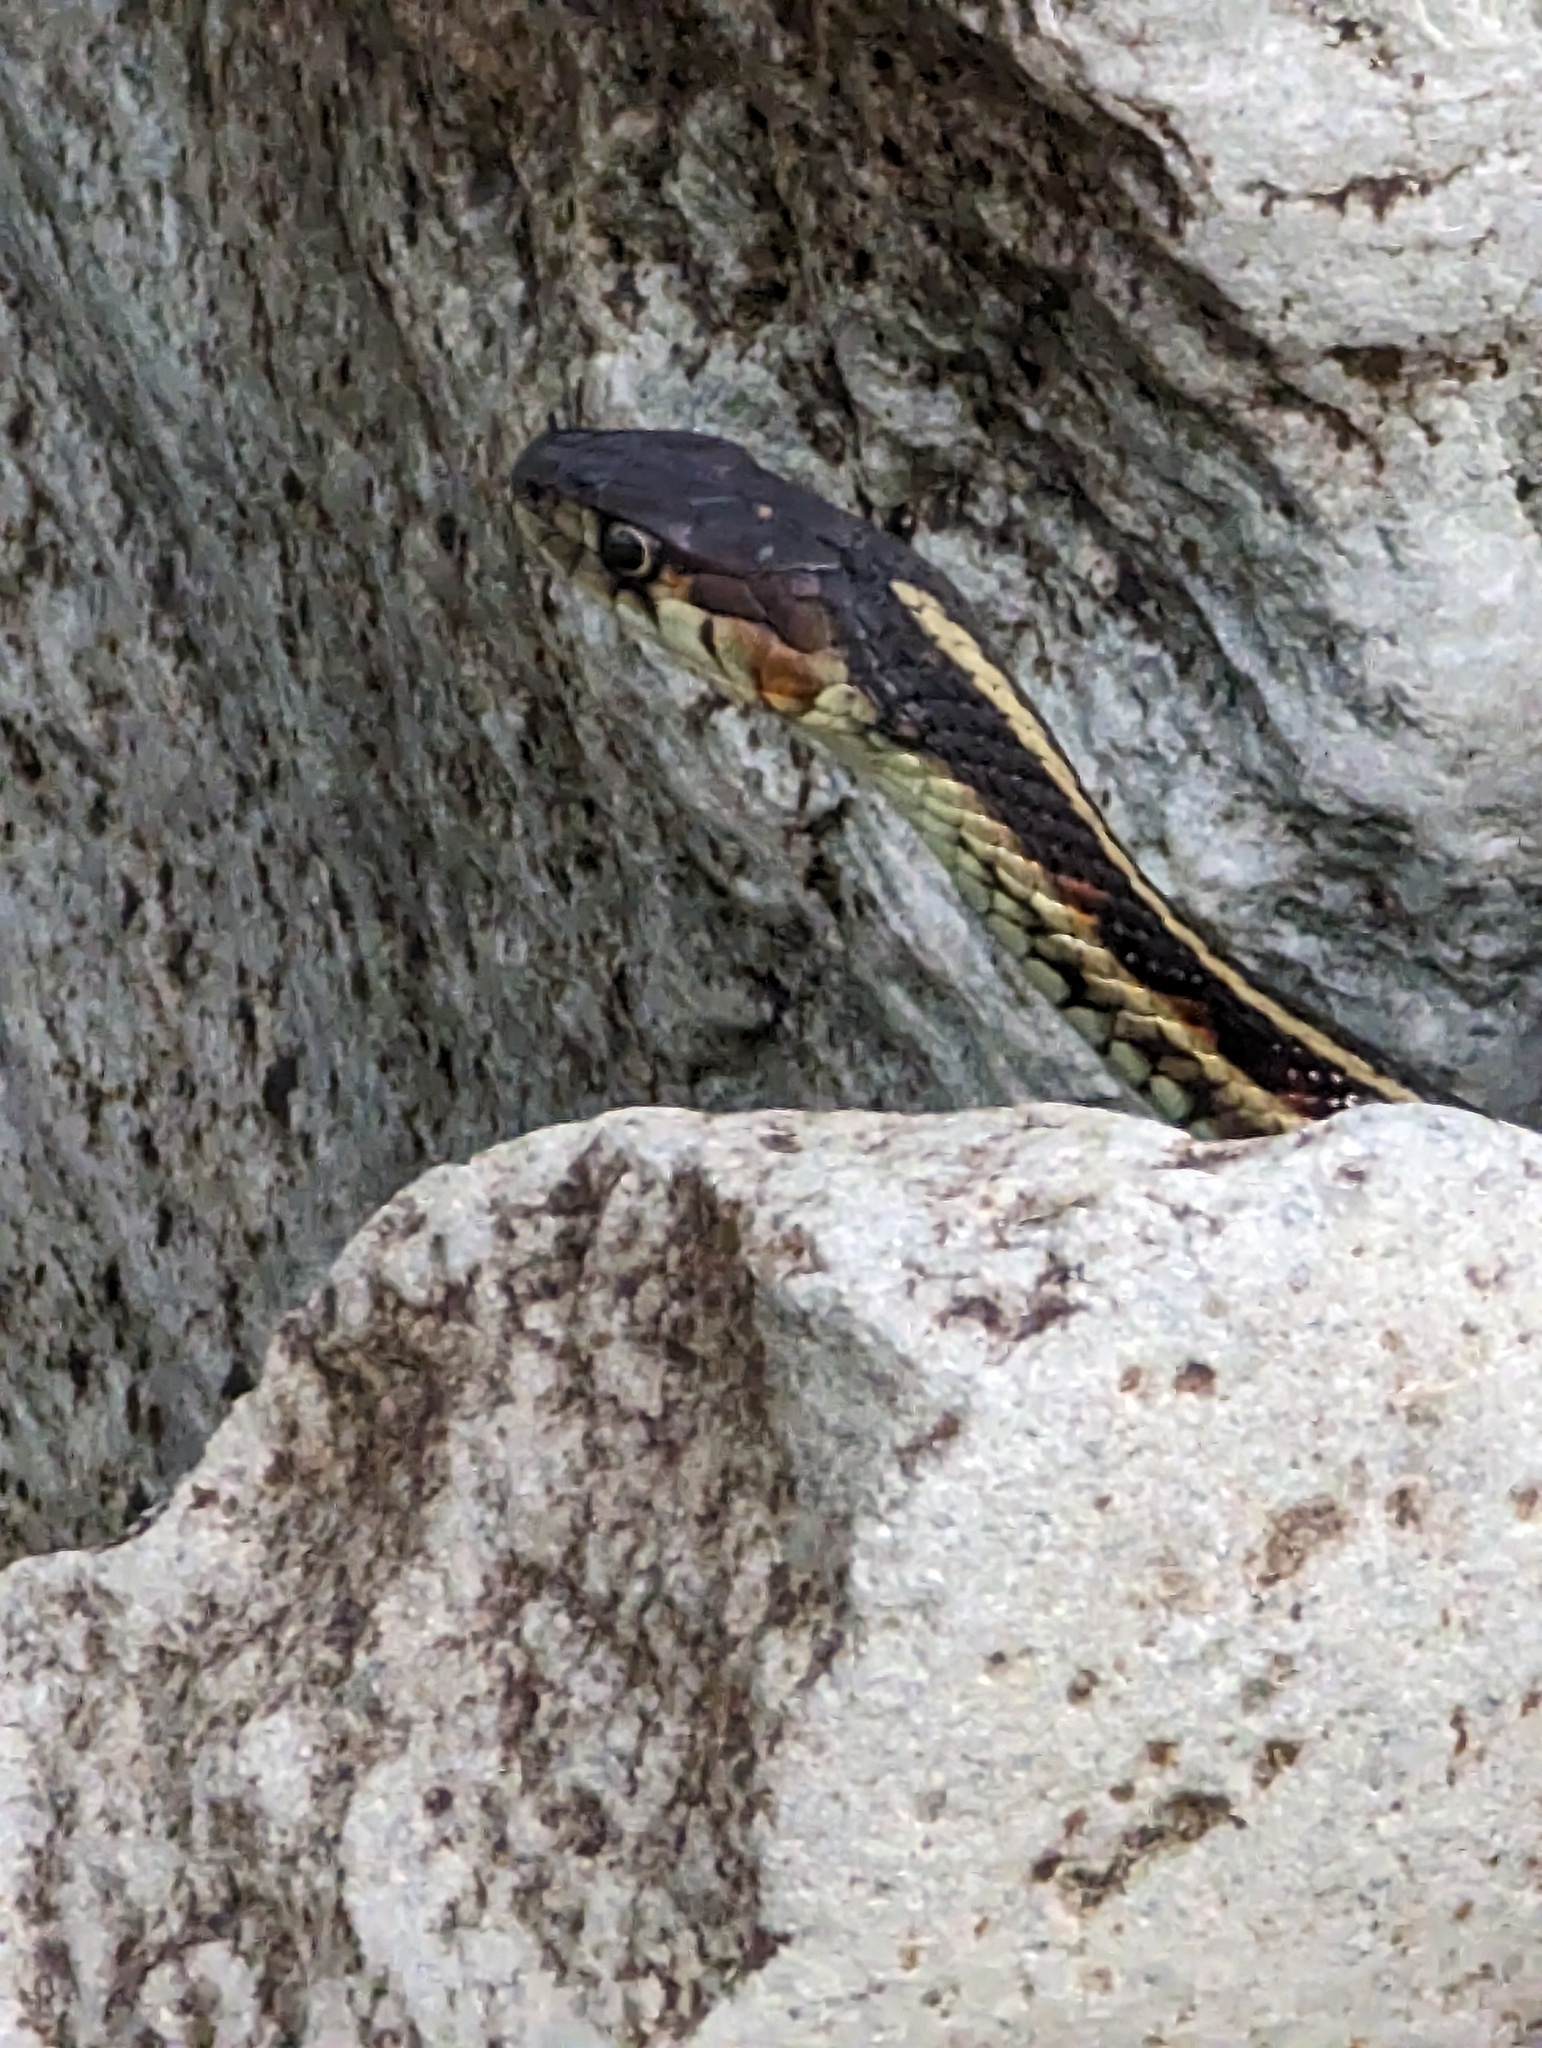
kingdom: Animalia
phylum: Chordata
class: Squamata
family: Colubridae
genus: Thamnophis
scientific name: Thamnophis sirtalis
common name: Common garter snake
